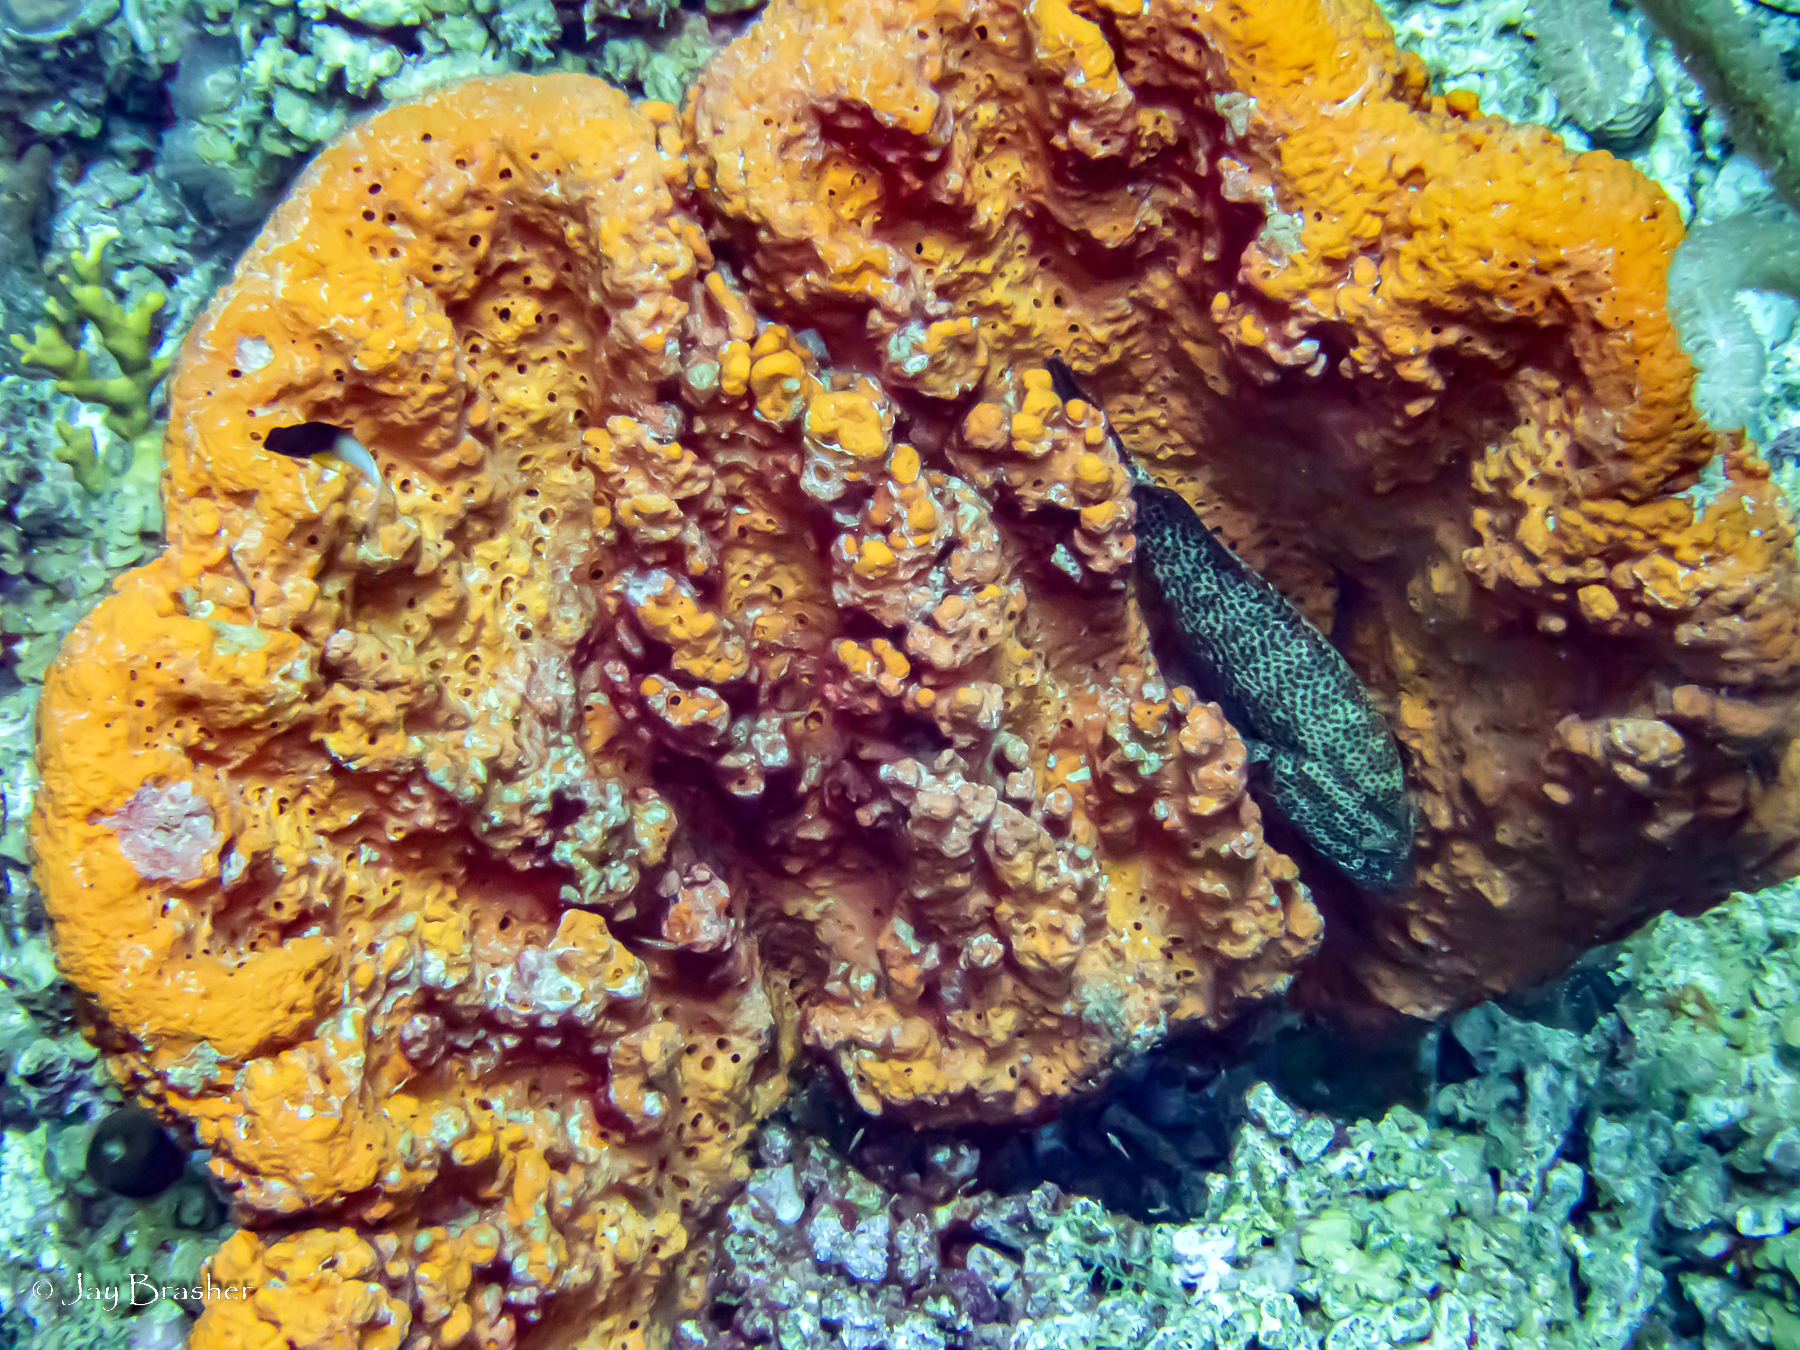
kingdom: Animalia
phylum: Porifera
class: Demospongiae
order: Agelasida
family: Agelasidae
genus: Agelas
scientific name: Agelas clathrodes
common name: Orange elephant ear sponge
